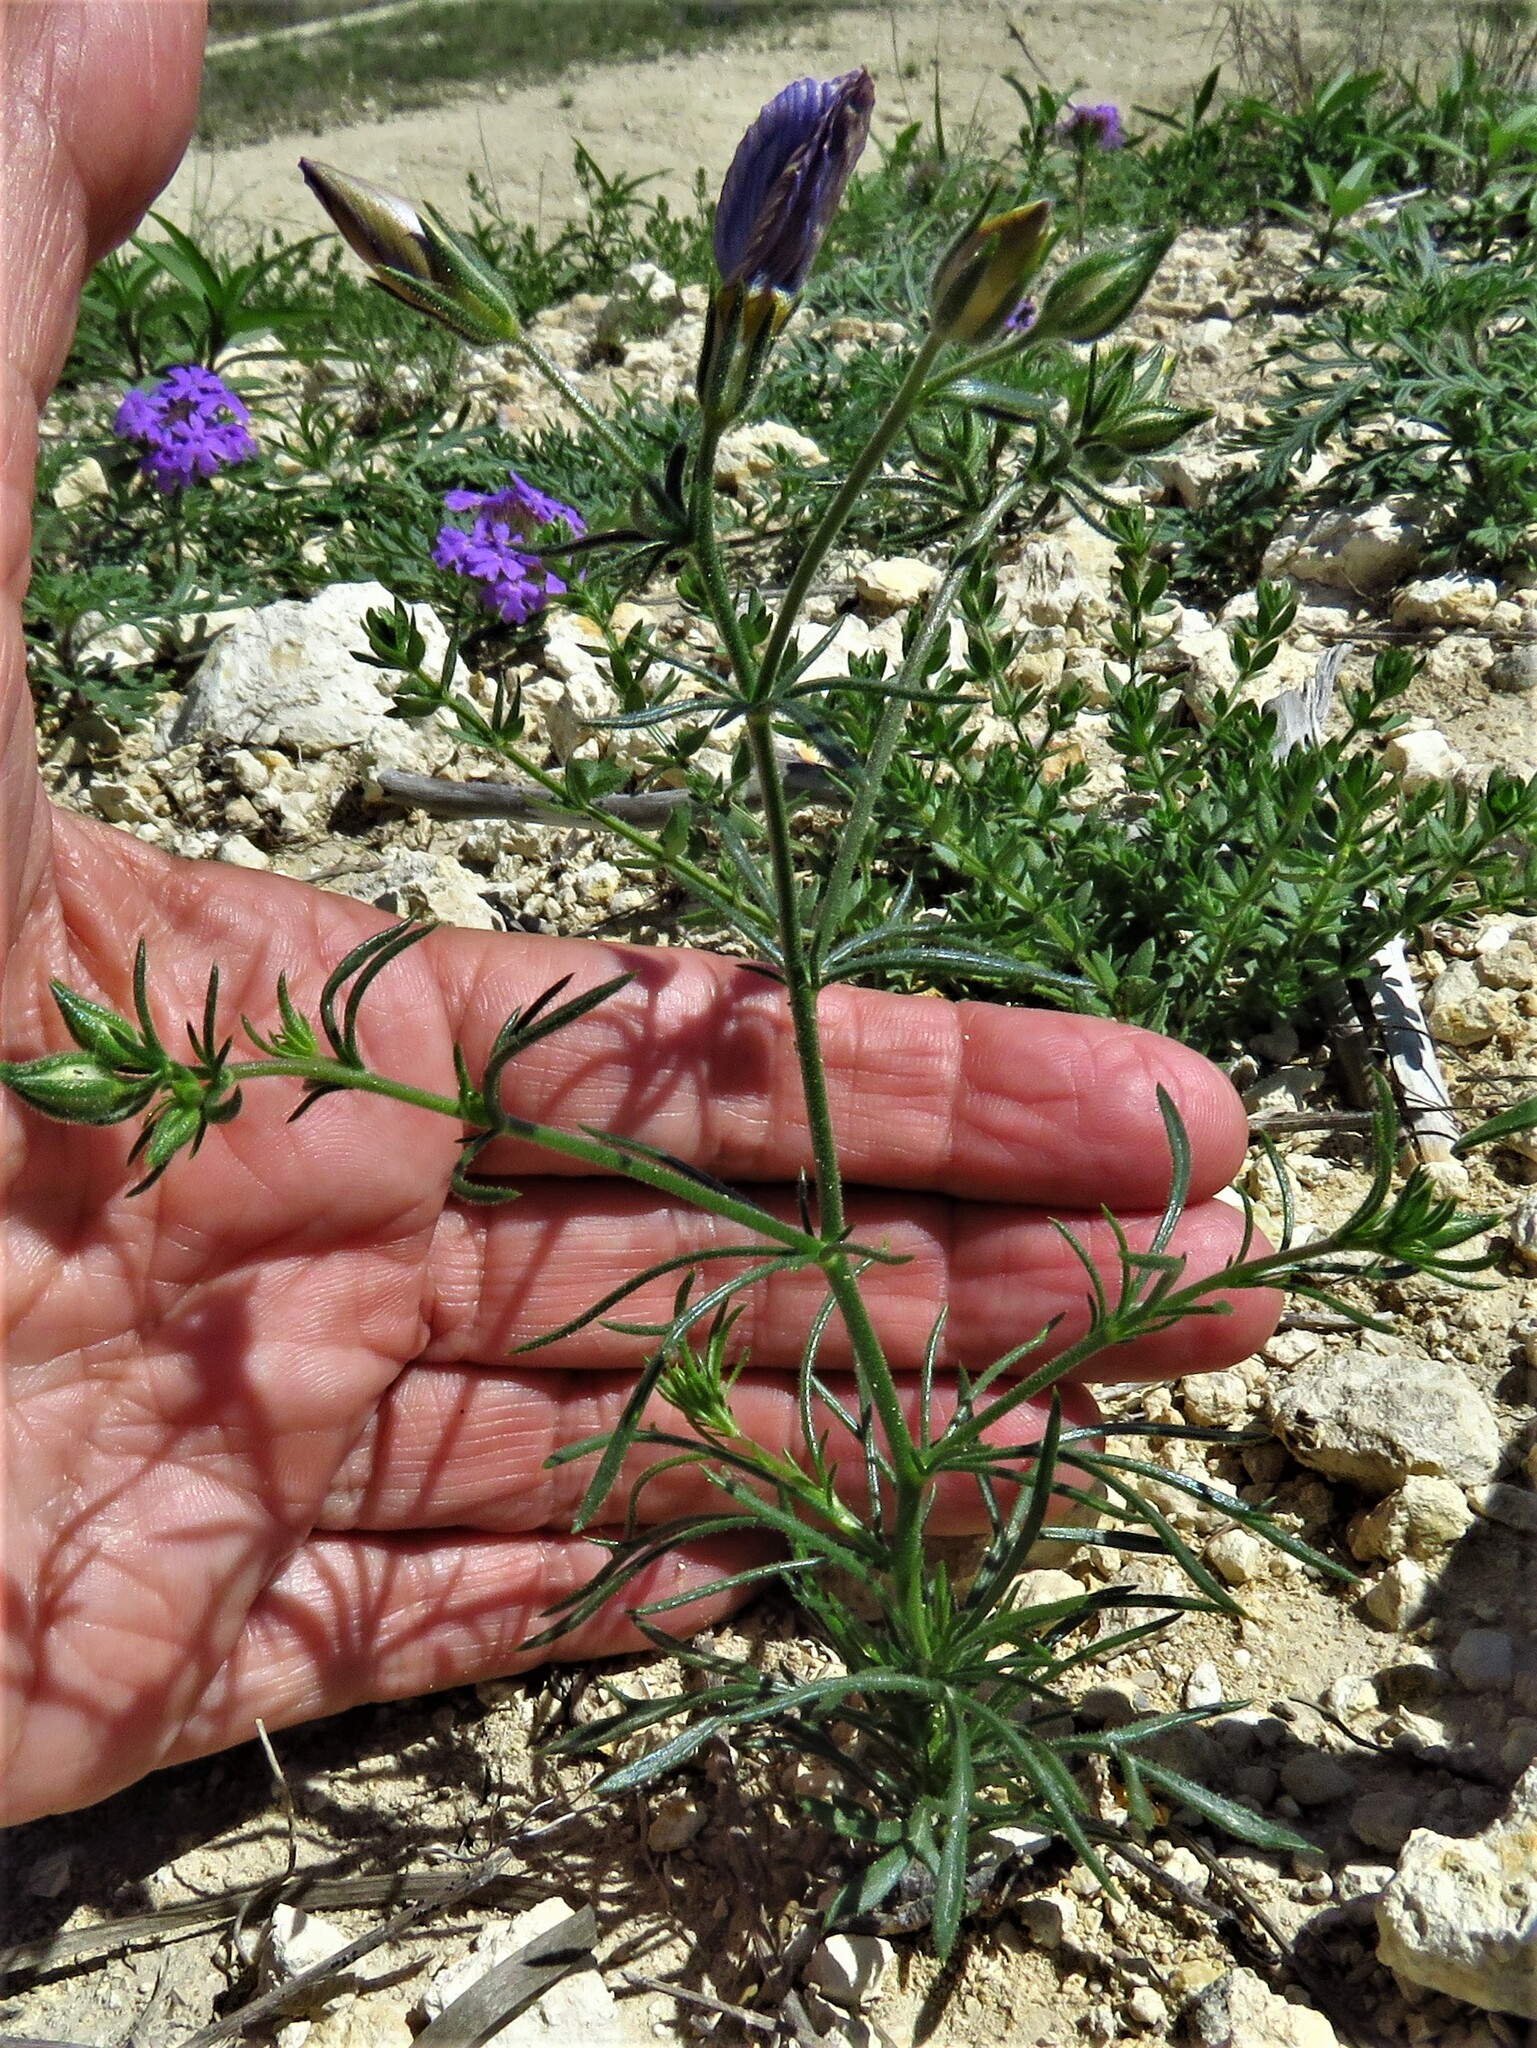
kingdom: Plantae
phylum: Tracheophyta
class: Magnoliopsida
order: Ericales
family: Polemoniaceae
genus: Giliastrum
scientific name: Giliastrum rigidulum
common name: Bluebowls
